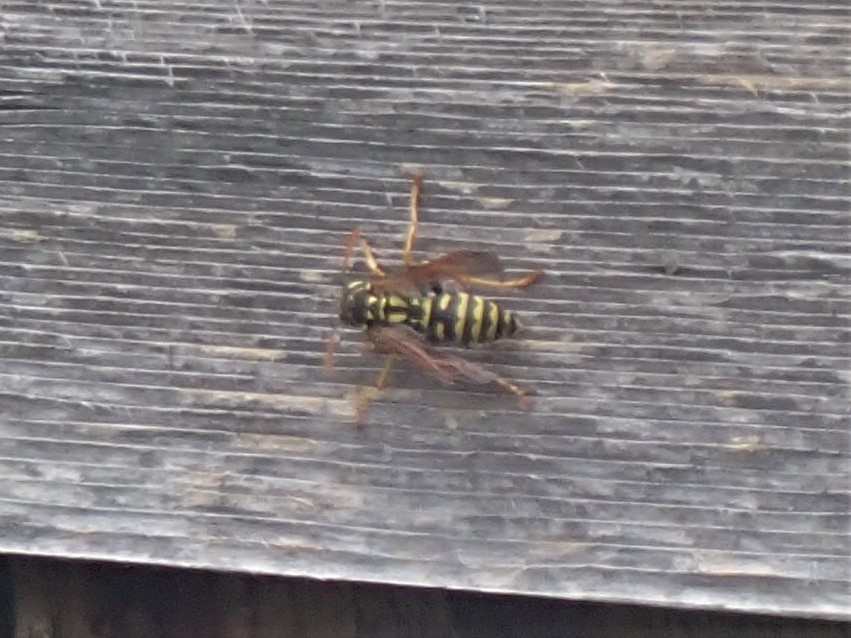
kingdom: Animalia
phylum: Arthropoda
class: Insecta
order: Hymenoptera
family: Eumenidae
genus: Polistes
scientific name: Polistes dominula
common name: Paper wasp
